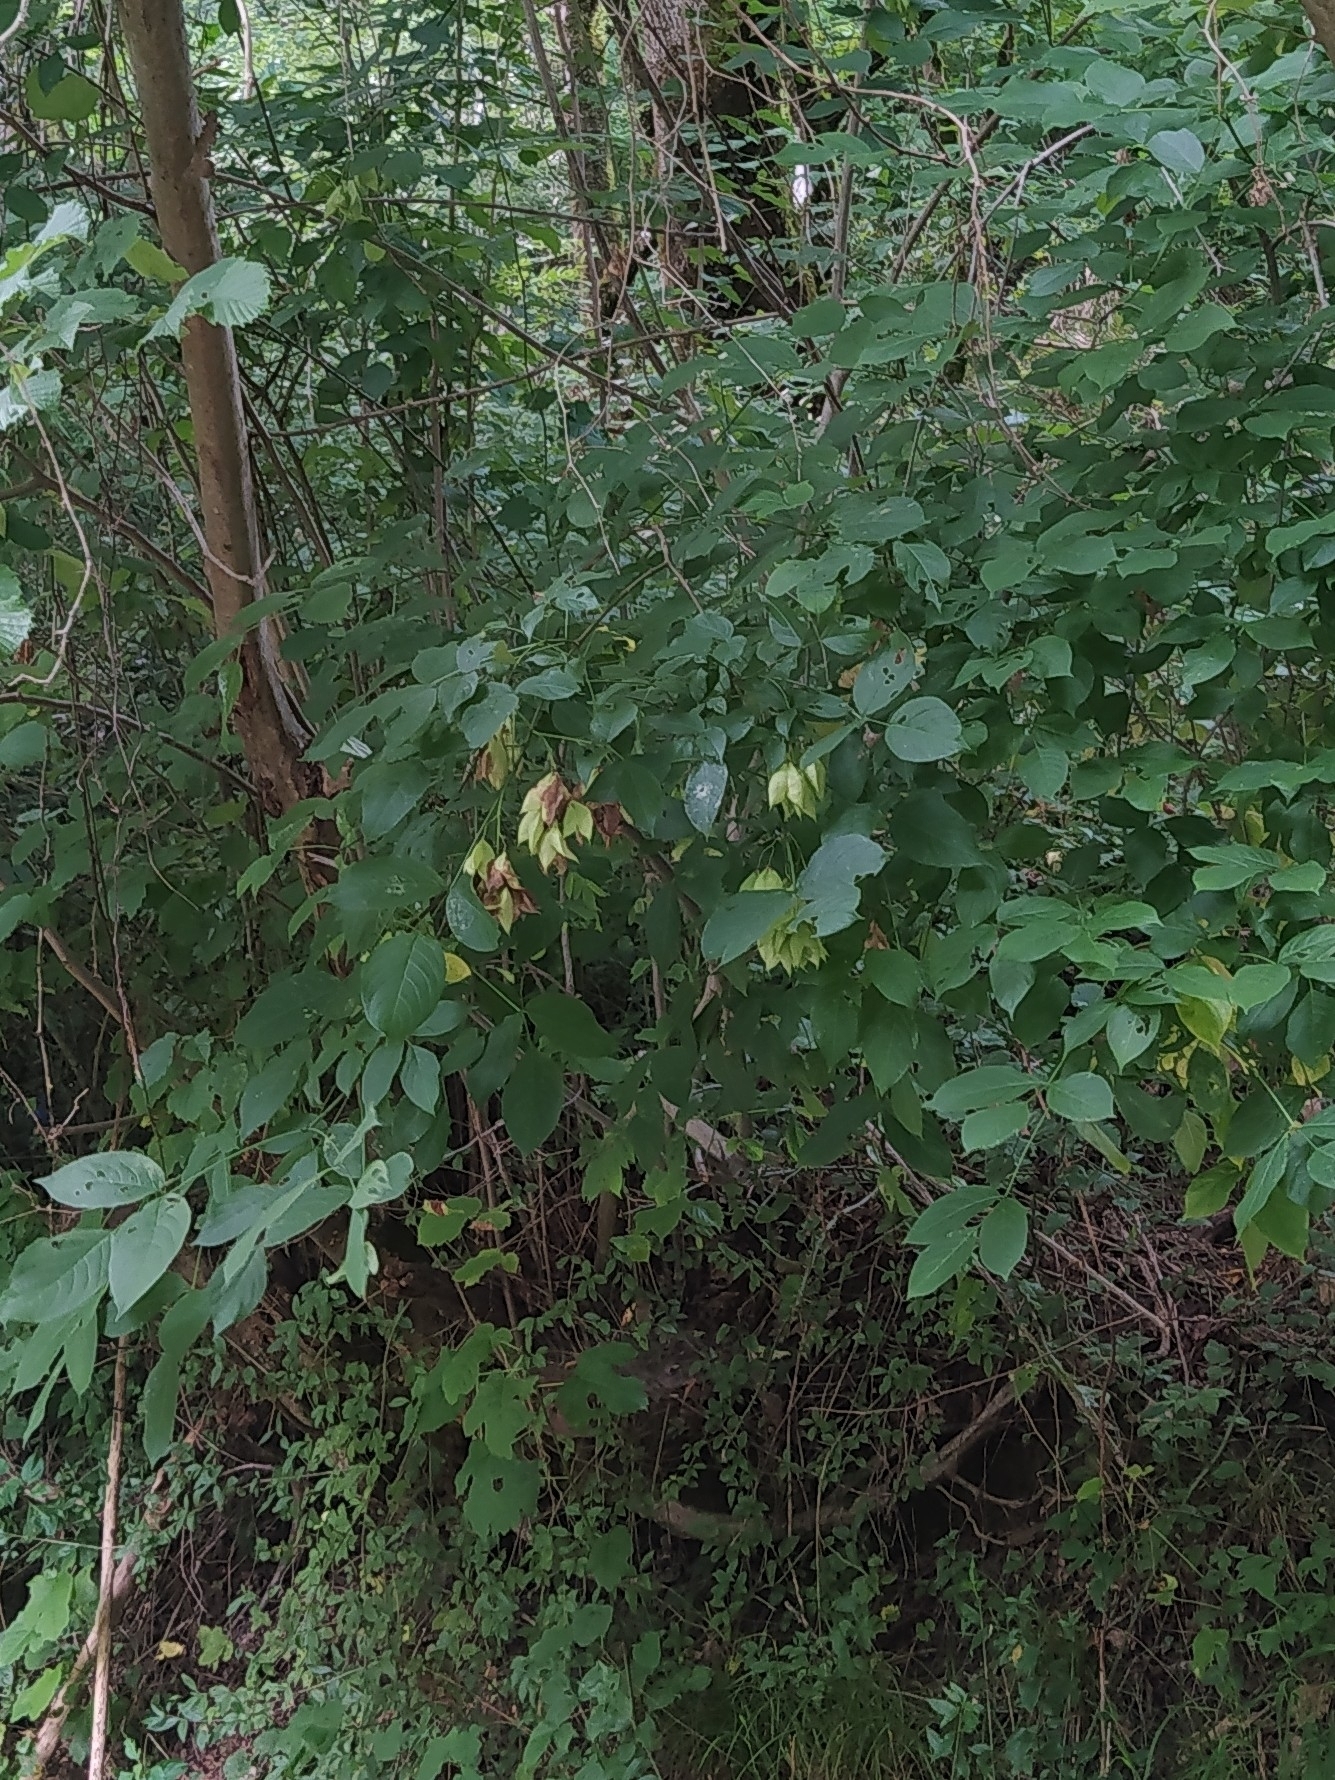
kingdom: Plantae
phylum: Tracheophyta
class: Magnoliopsida
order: Crossosomatales
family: Staphyleaceae
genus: Staphylea
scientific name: Staphylea colchica
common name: Caucasian bladdernut
